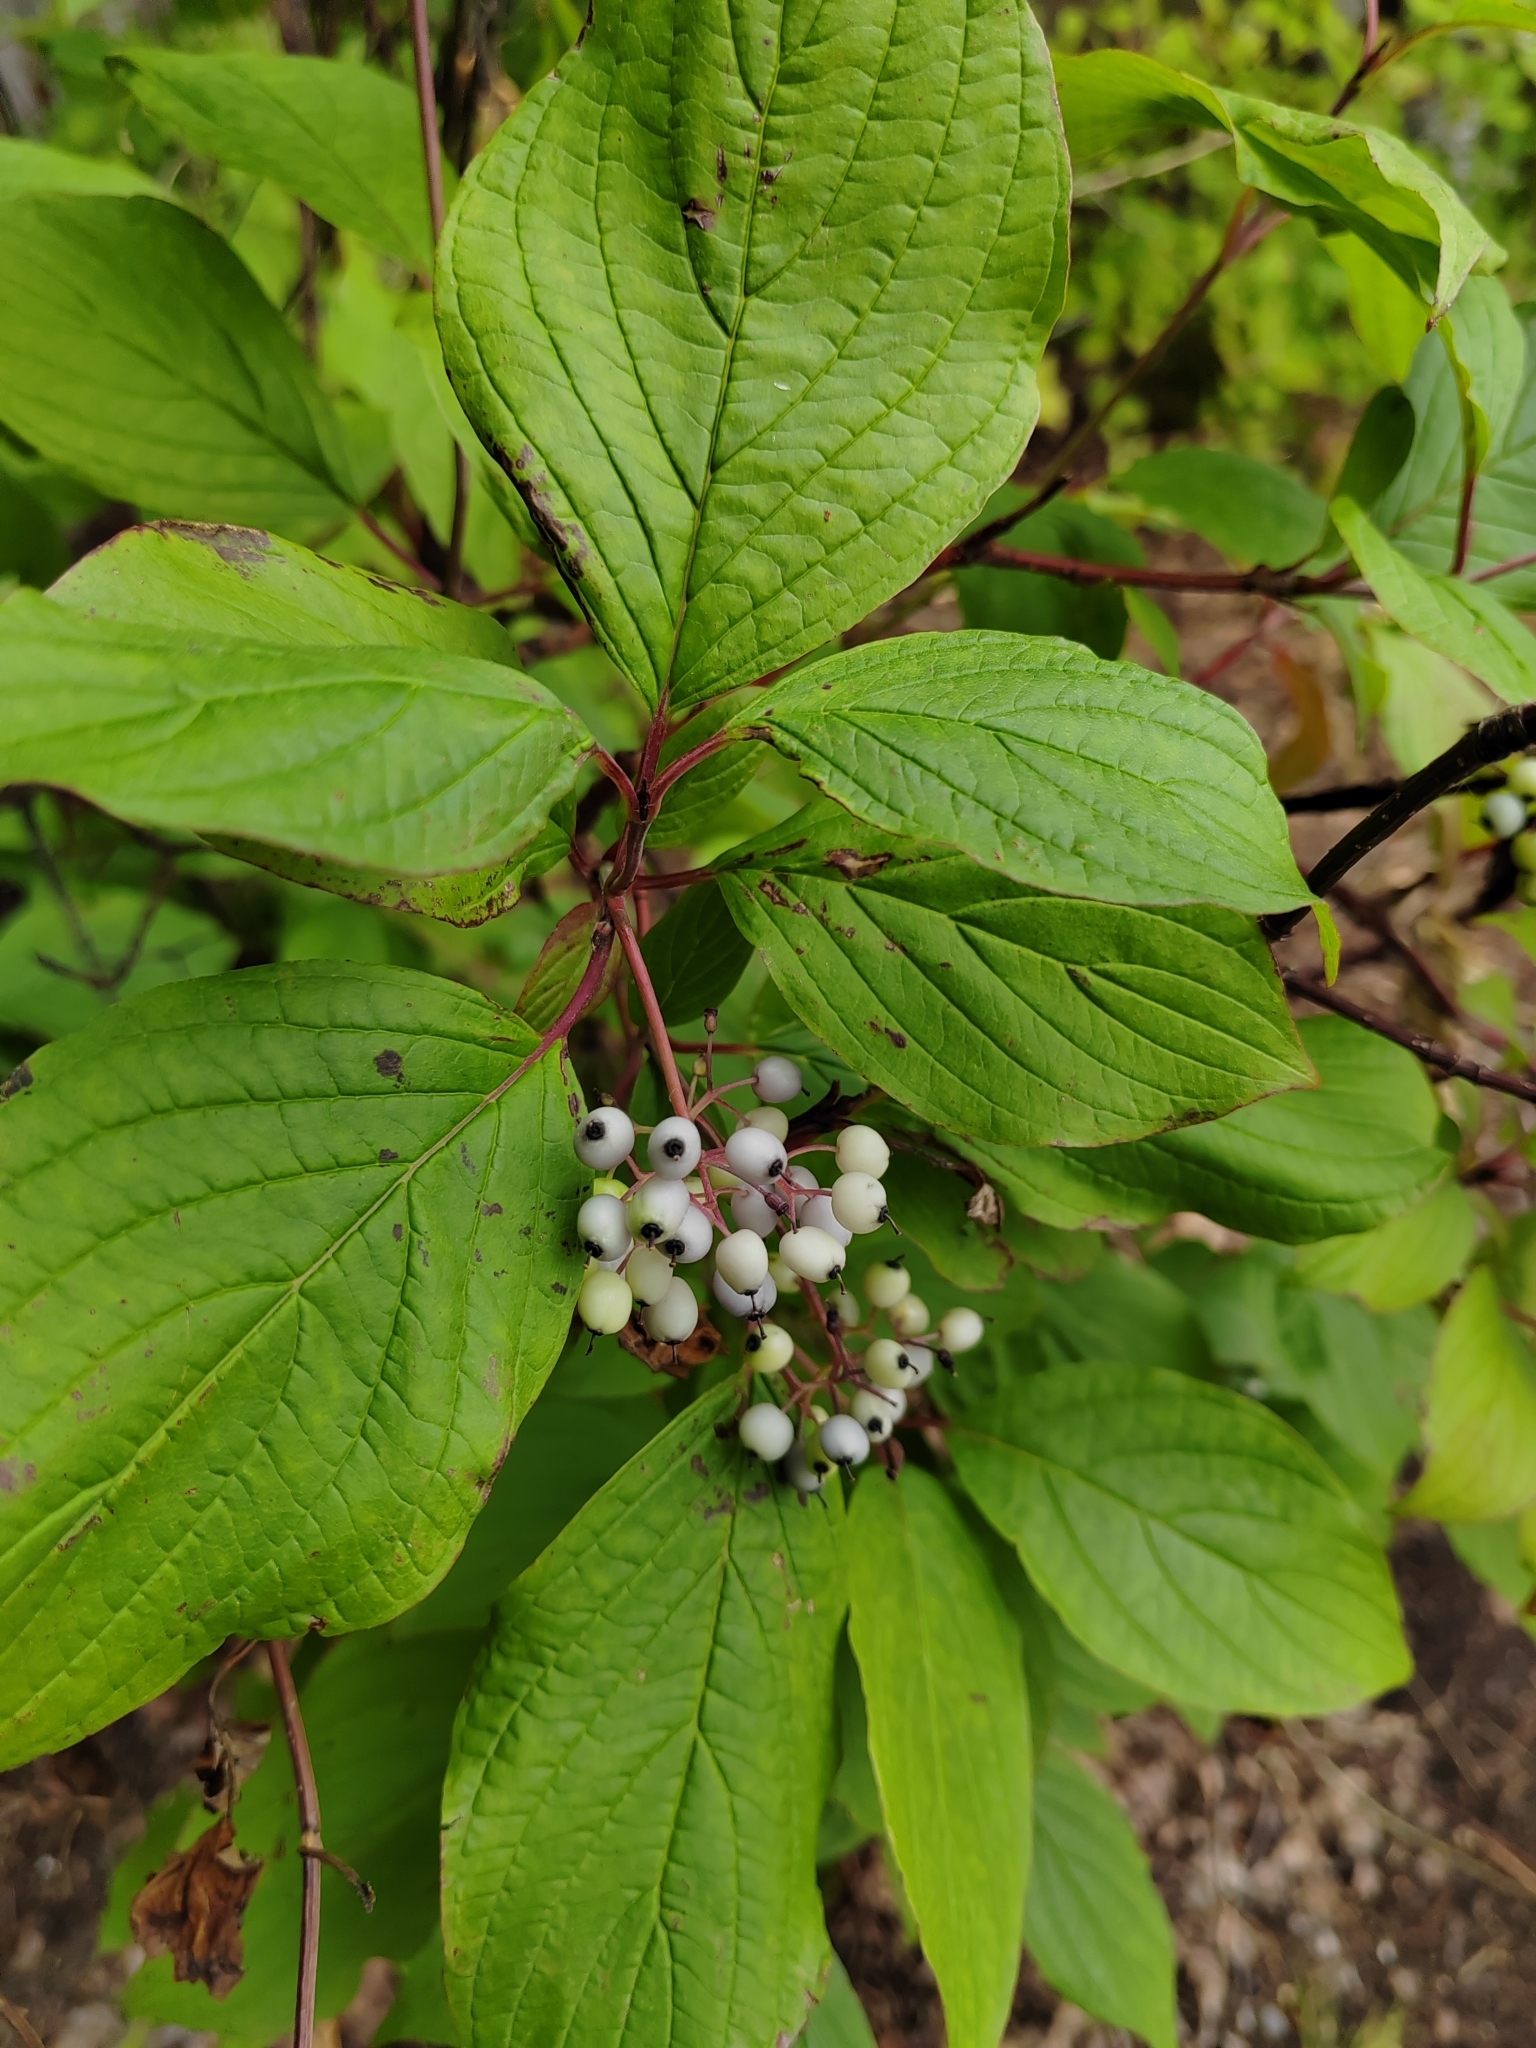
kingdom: Plantae
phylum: Tracheophyta
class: Magnoliopsida
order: Cornales
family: Cornaceae
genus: Cornus
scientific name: Cornus alba
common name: White dogwood
